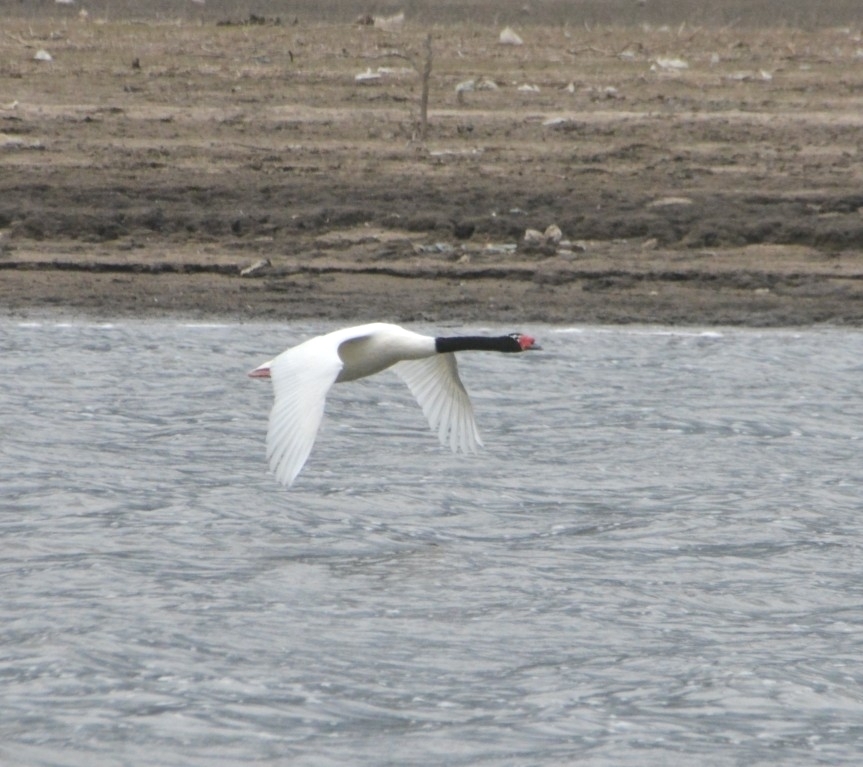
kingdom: Animalia
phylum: Chordata
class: Aves
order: Anseriformes
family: Anatidae
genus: Cygnus
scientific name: Cygnus melancoryphus
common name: Black-necked swan
